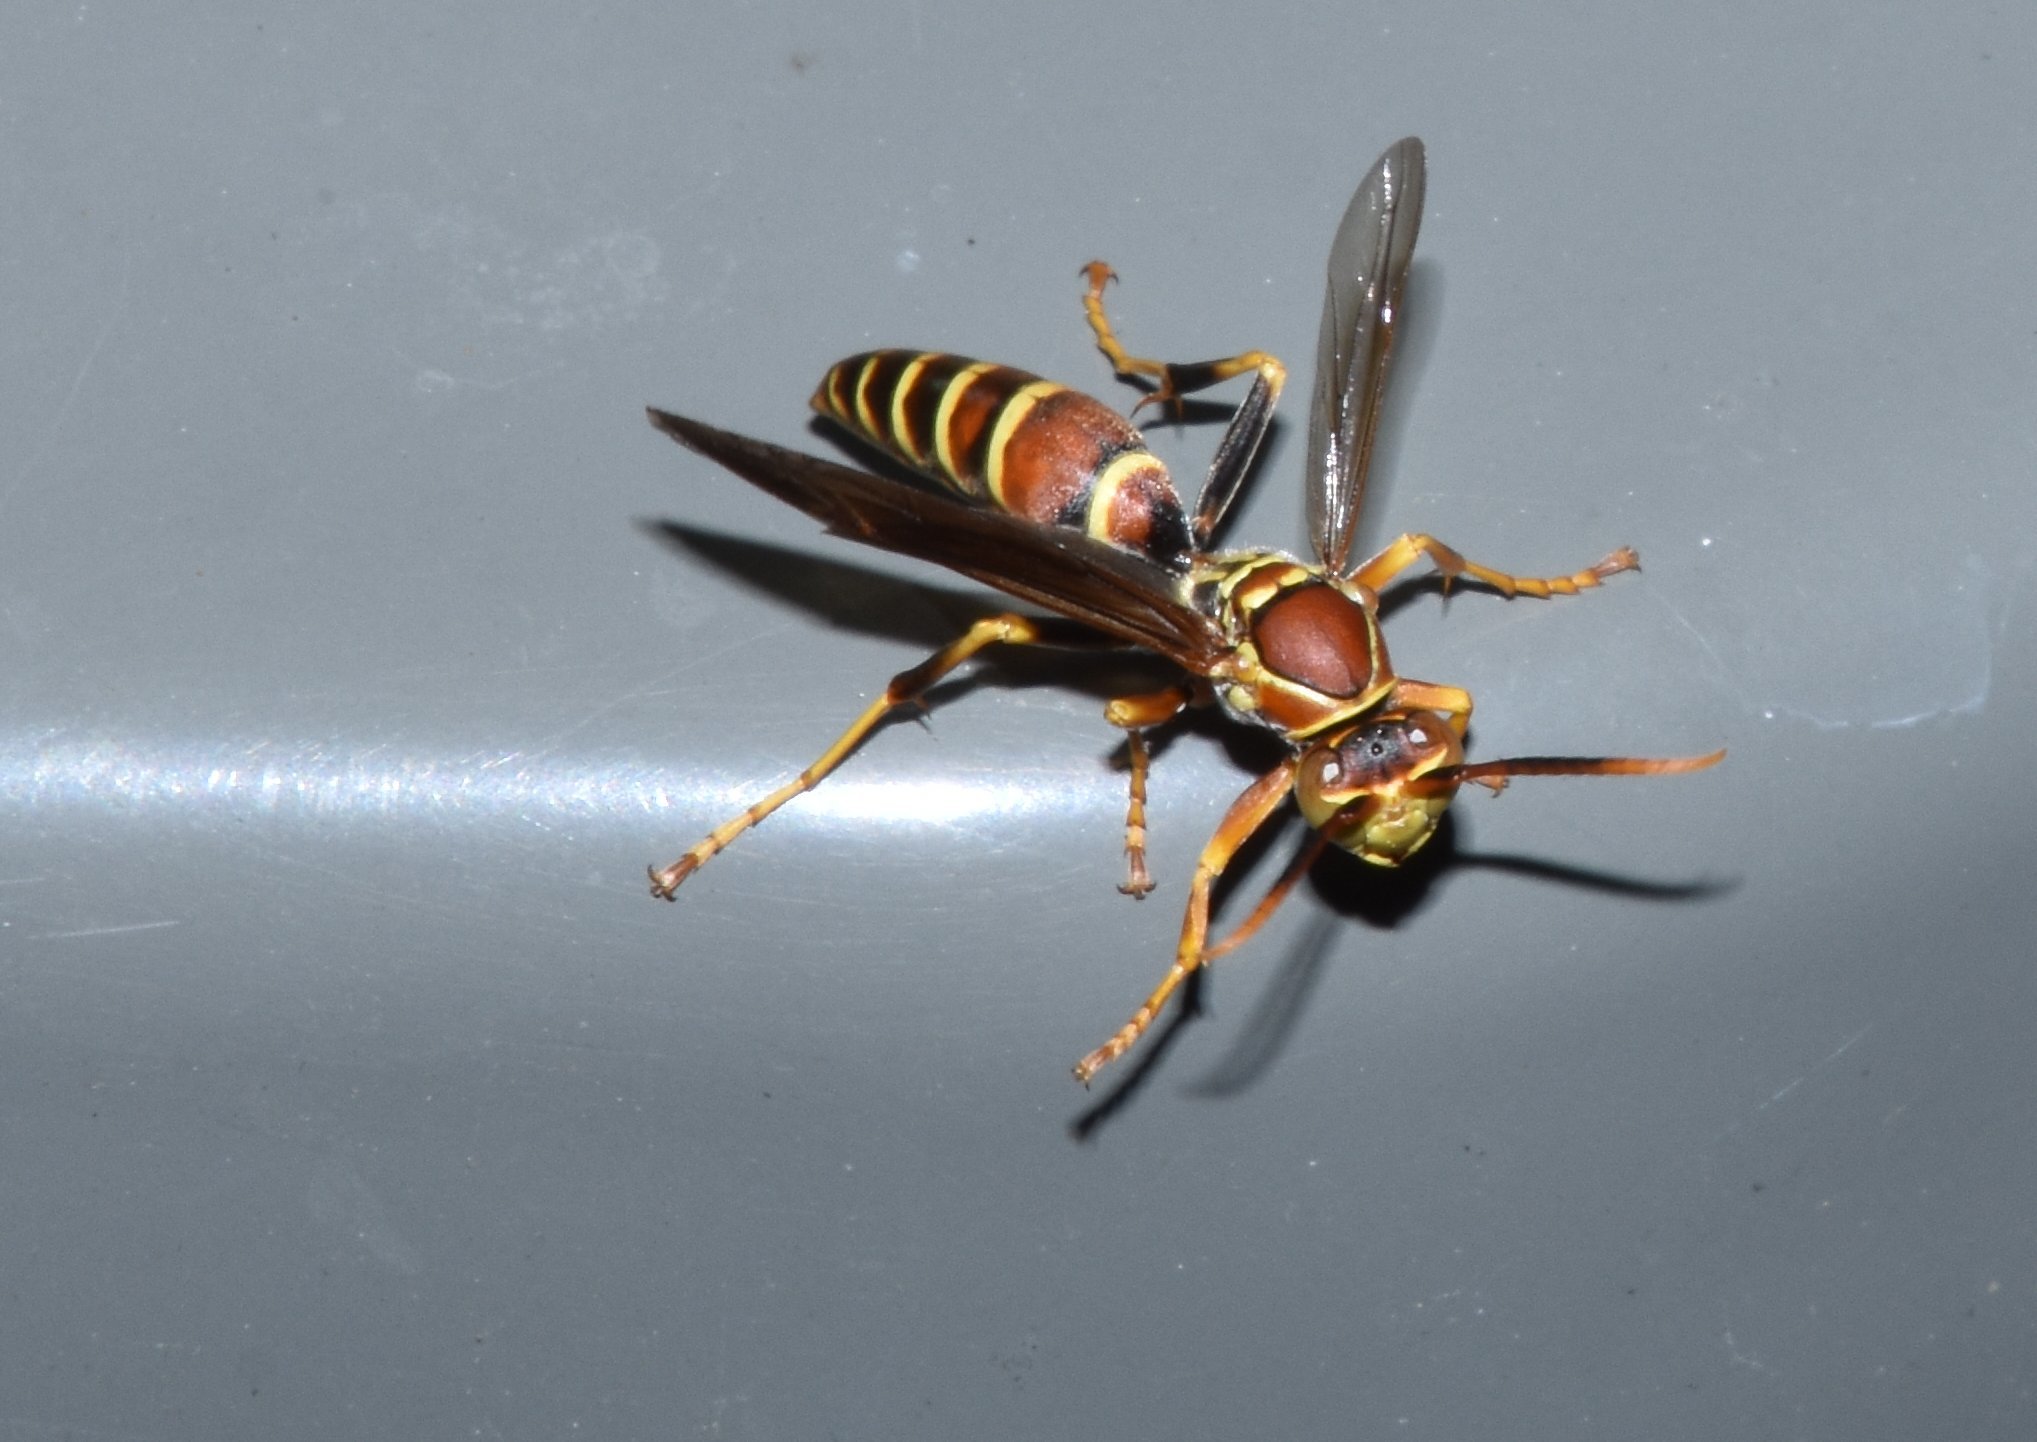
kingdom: Animalia
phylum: Arthropoda
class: Insecta
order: Hymenoptera
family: Eumenidae
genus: Polistes
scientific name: Polistes exclamans
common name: Paper wasp
